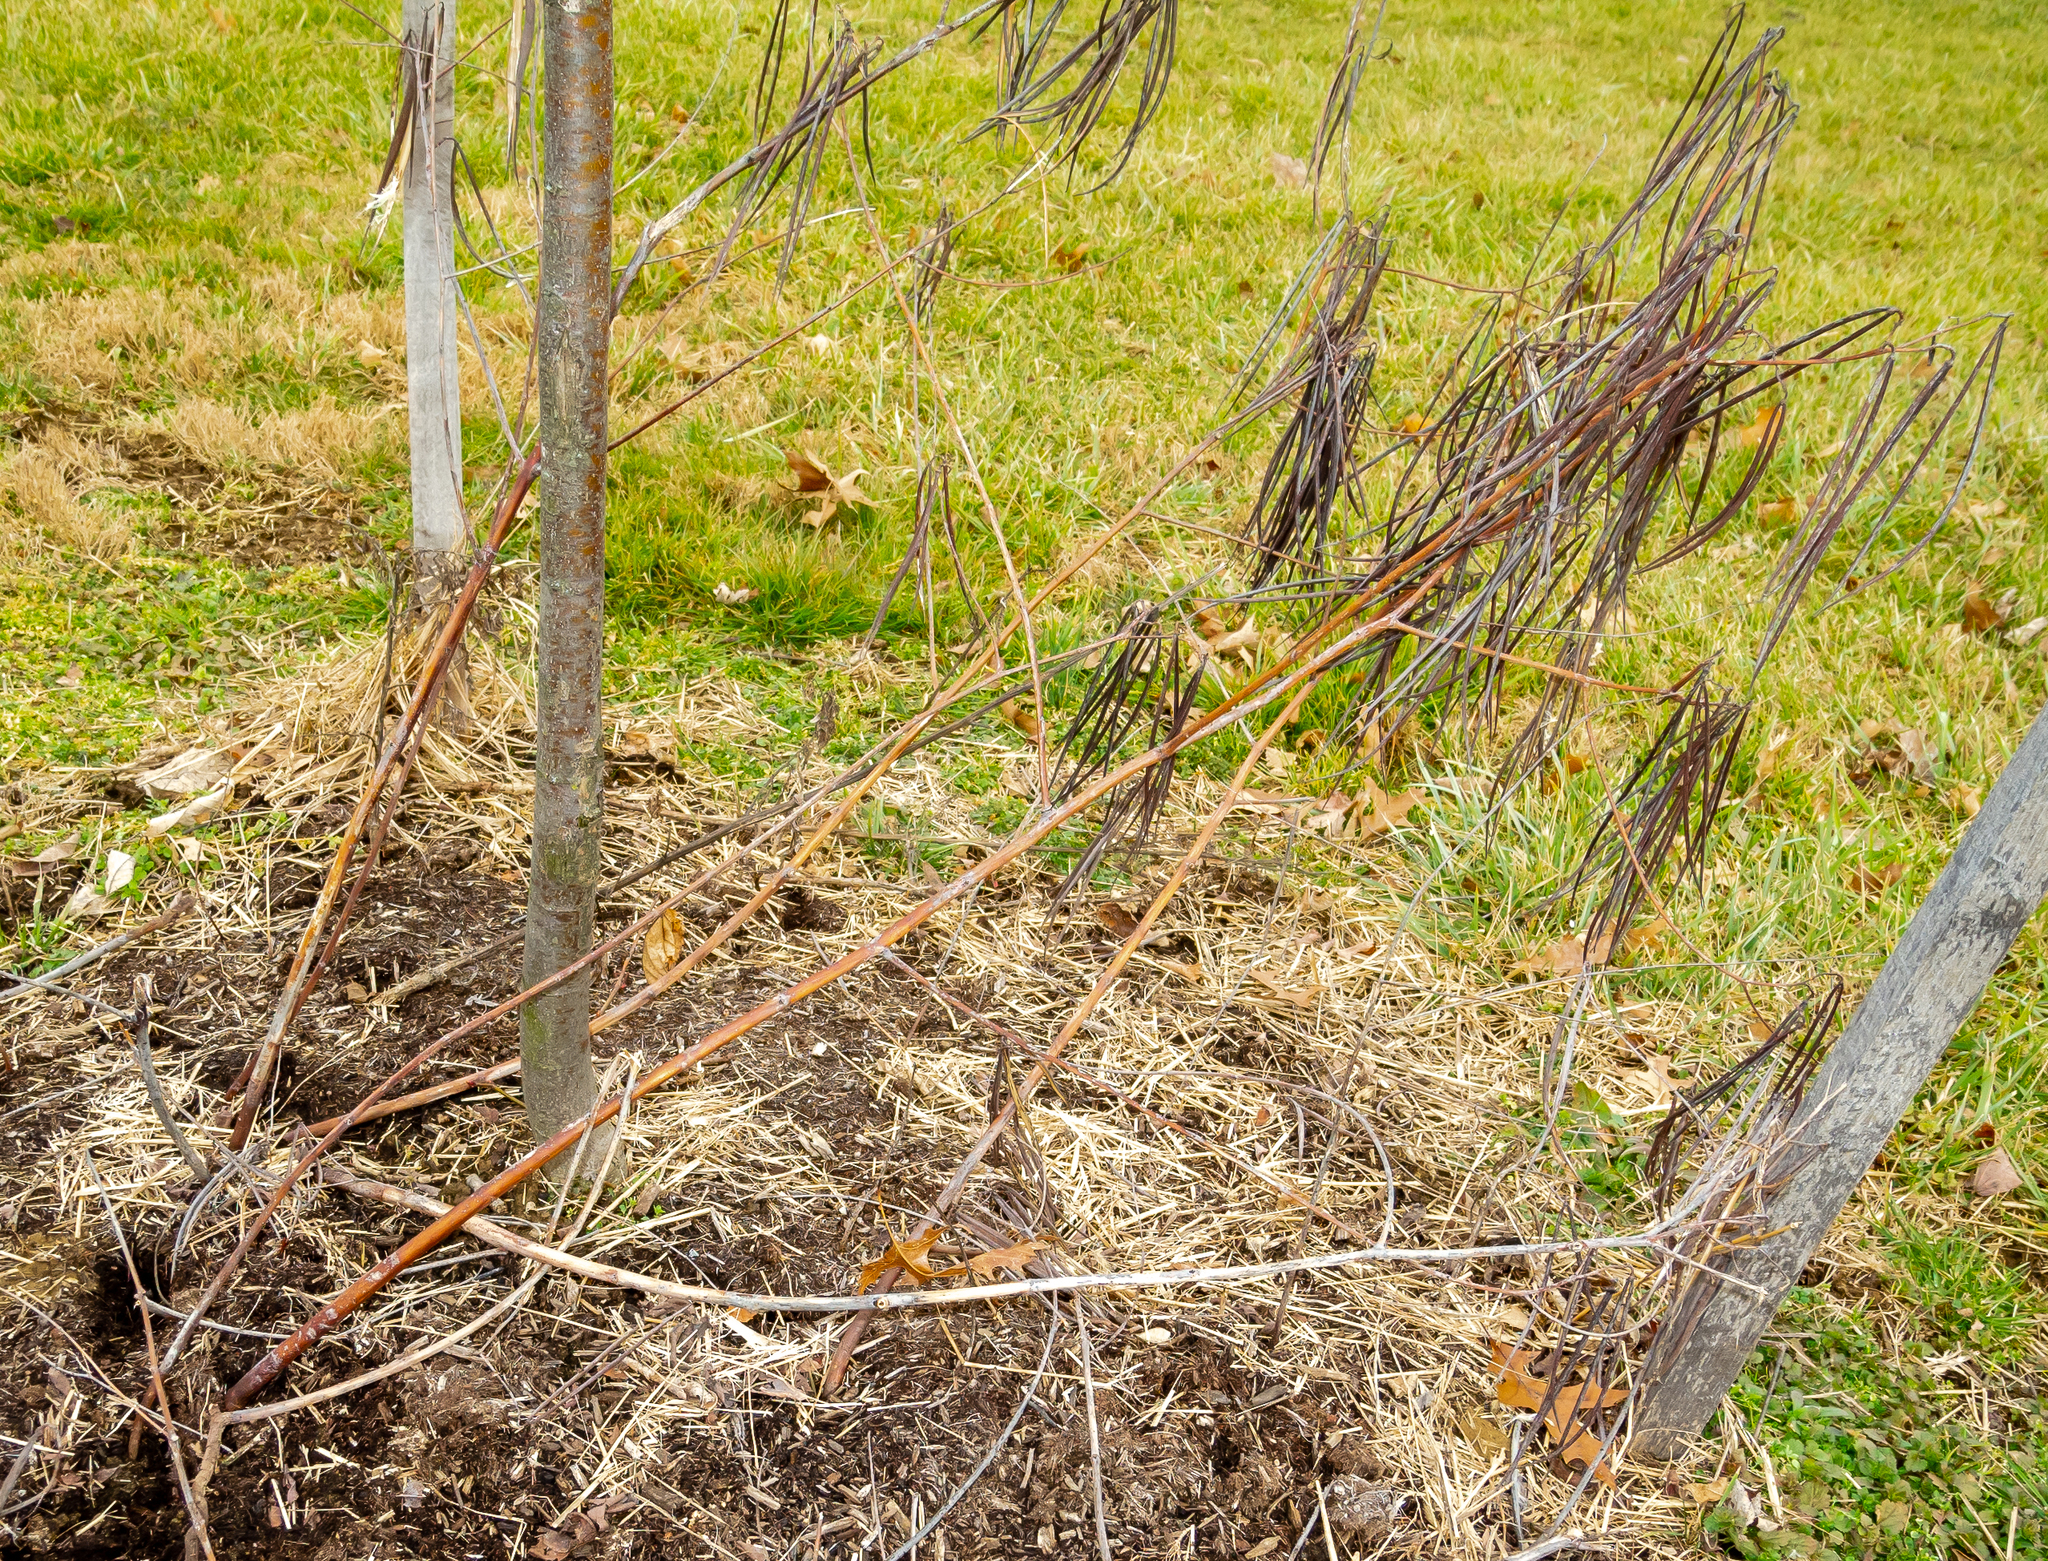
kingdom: Plantae
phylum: Tracheophyta
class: Magnoliopsida
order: Gentianales
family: Apocynaceae
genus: Apocynum
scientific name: Apocynum cannabinum
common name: Hemp dogbane
